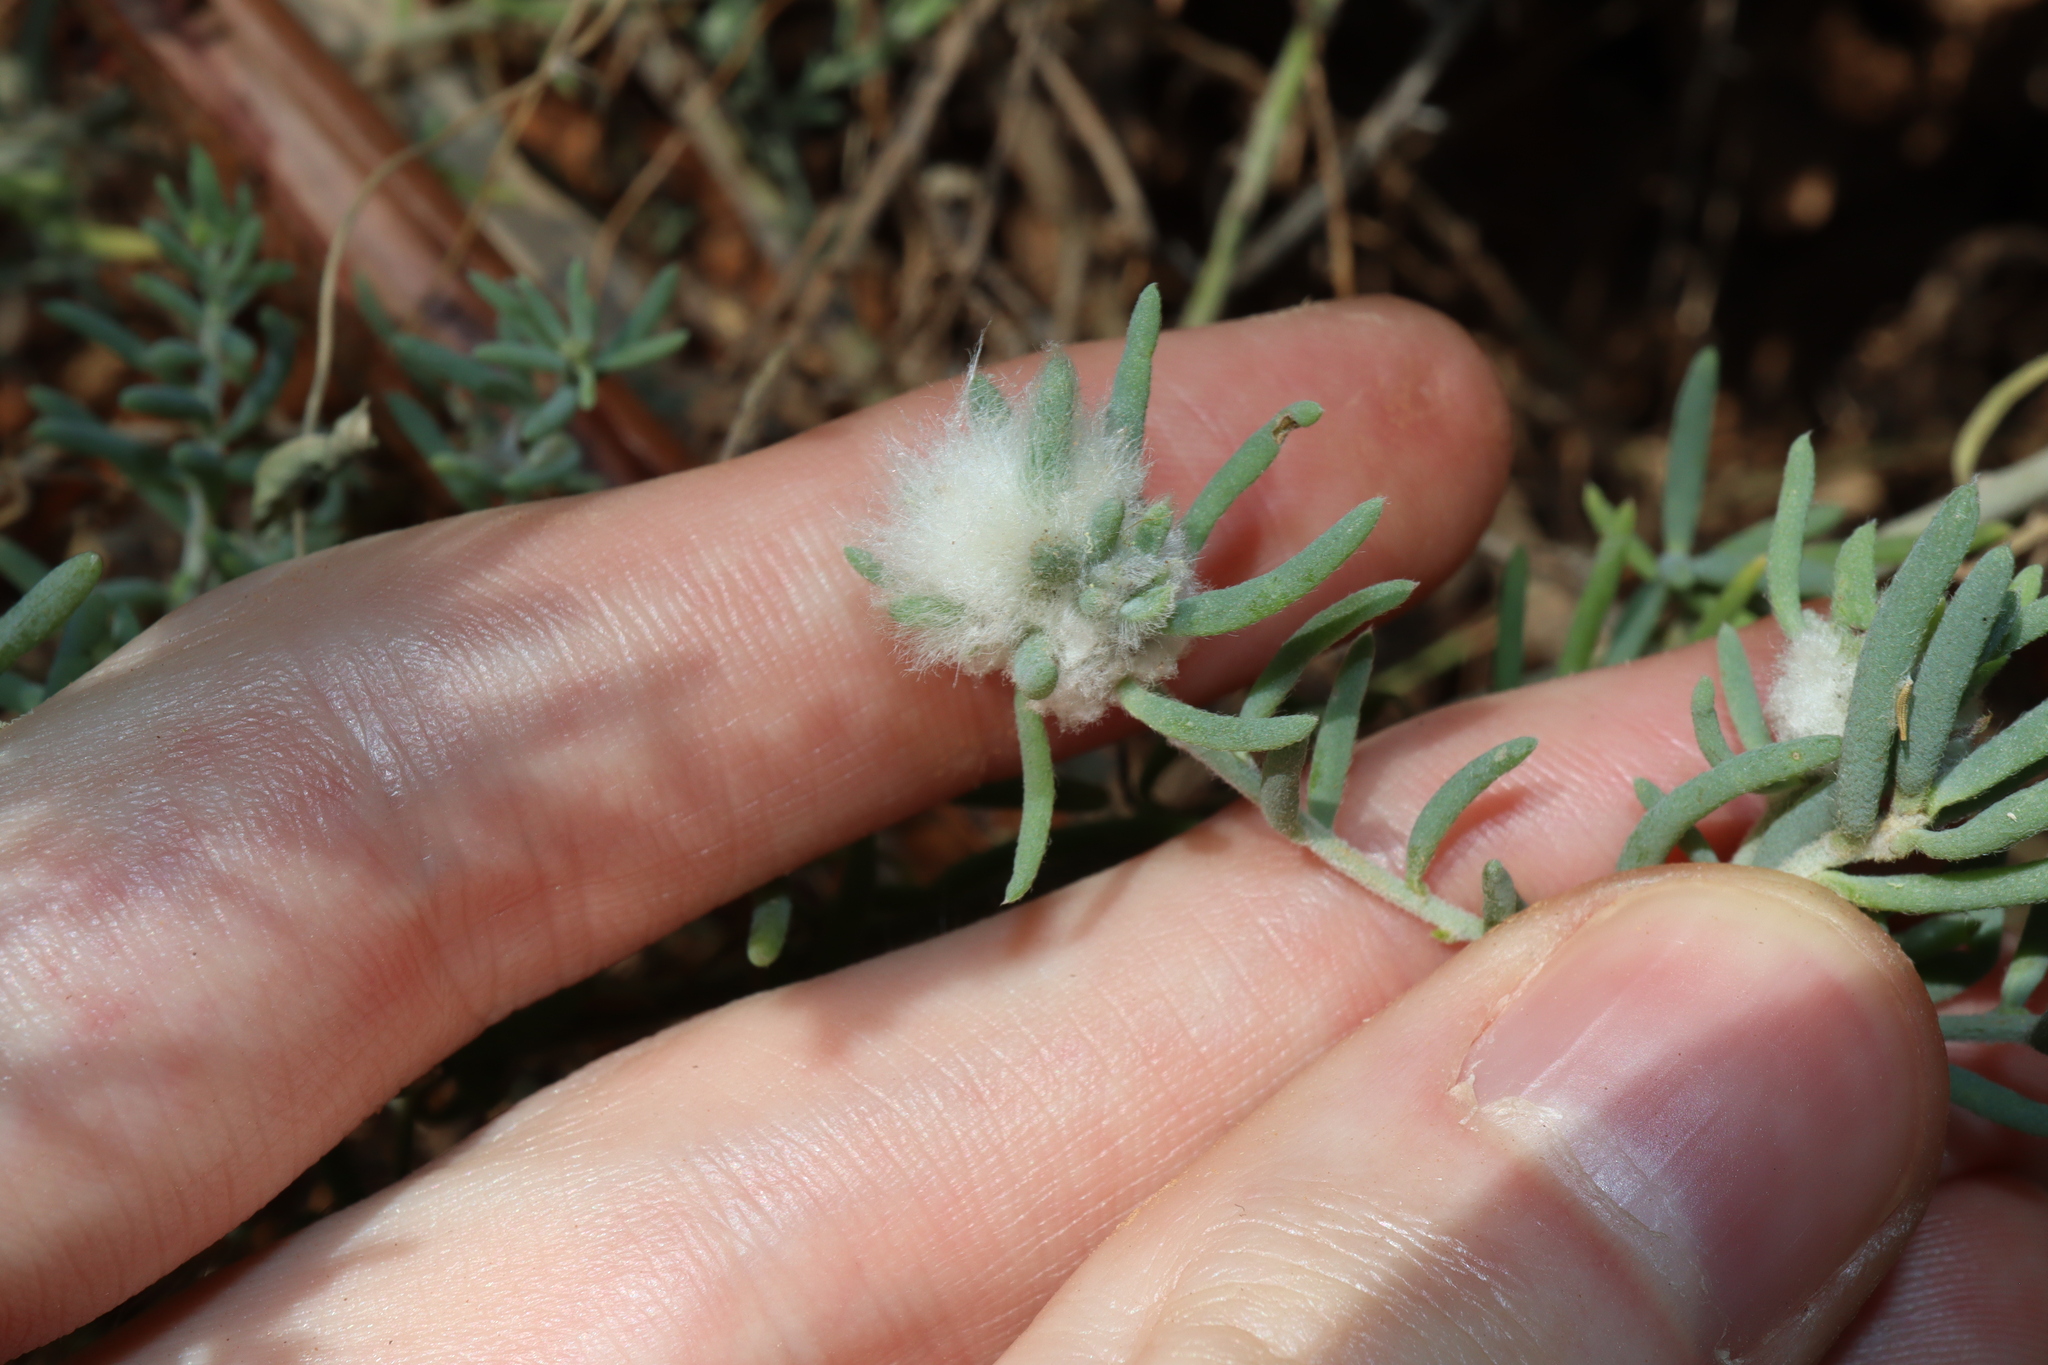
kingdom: Animalia
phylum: Arthropoda
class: Insecta
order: Diptera
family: Cecidomyiidae
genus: Asphondylia
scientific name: Asphondylia tonsura
